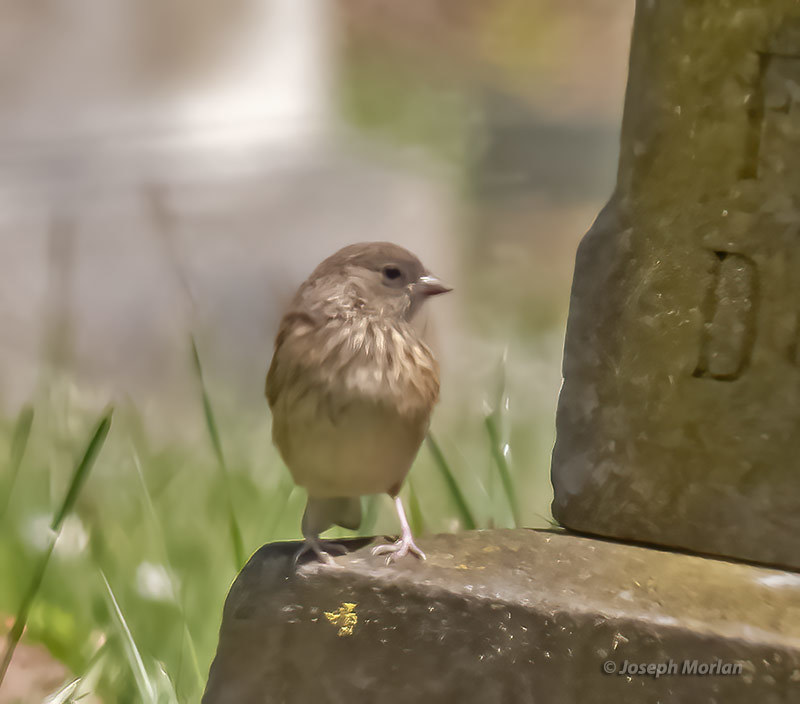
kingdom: Animalia
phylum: Chordata
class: Aves
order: Passeriformes
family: Passerellidae
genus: Junco
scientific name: Junco hyemalis
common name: Dark-eyed junco
